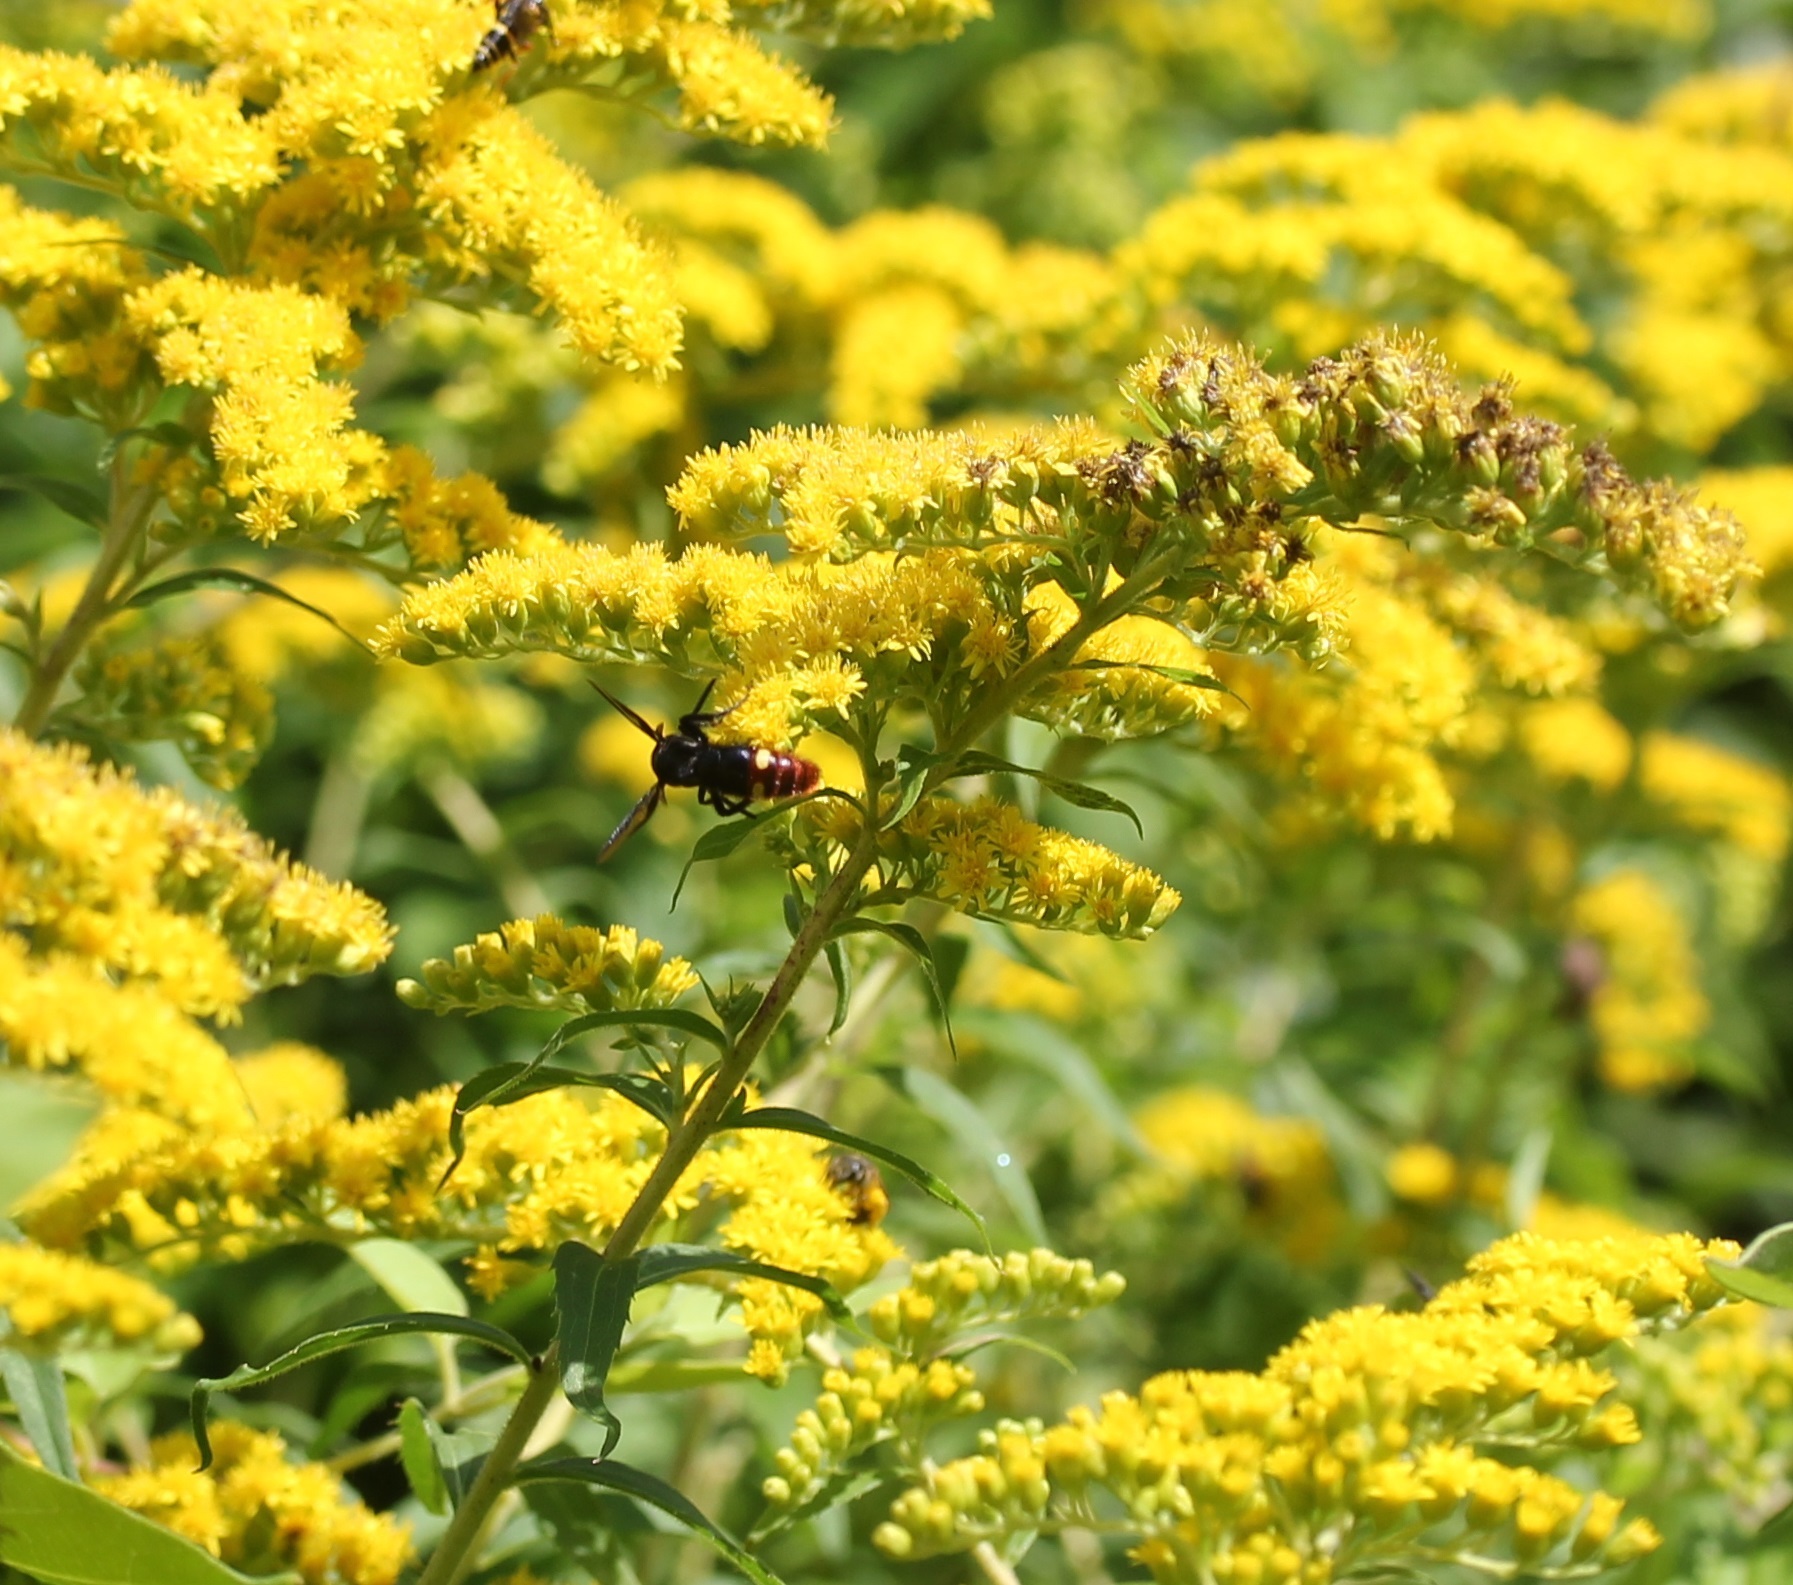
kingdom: Animalia
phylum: Arthropoda
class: Insecta
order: Hymenoptera
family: Scoliidae
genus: Scolia
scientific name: Scolia dubia
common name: Blue-winged scoliid wasp
